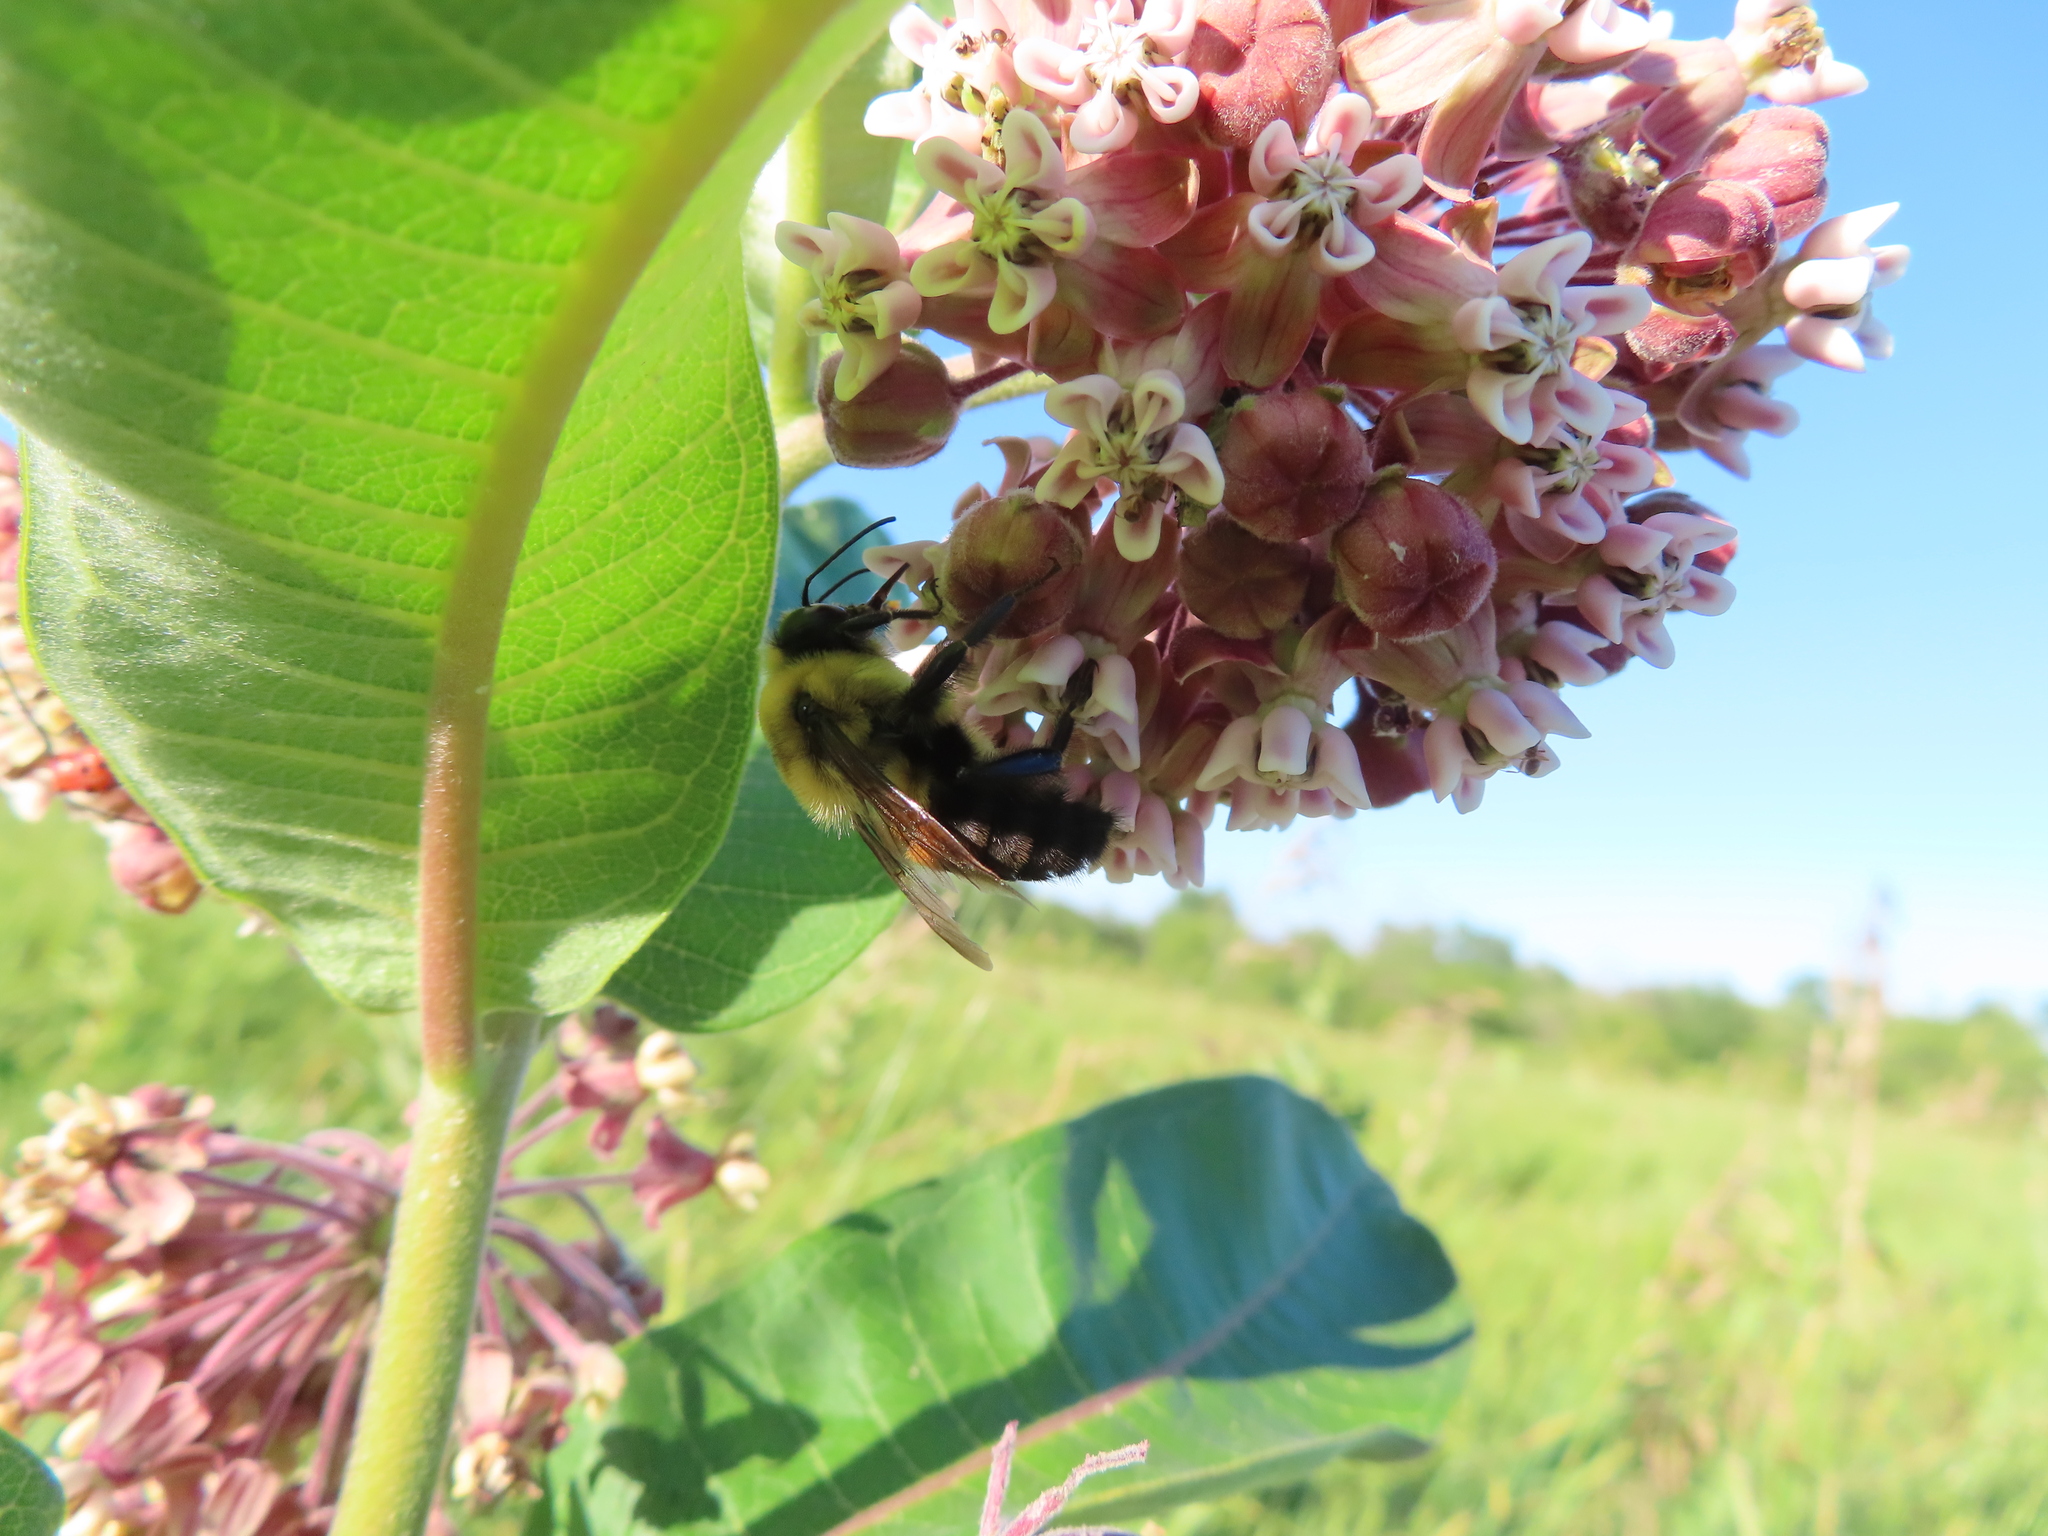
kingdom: Animalia
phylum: Arthropoda
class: Insecta
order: Hymenoptera
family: Apidae
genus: Bombus
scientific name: Bombus griseocollis
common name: Brown-belted bumble bee
